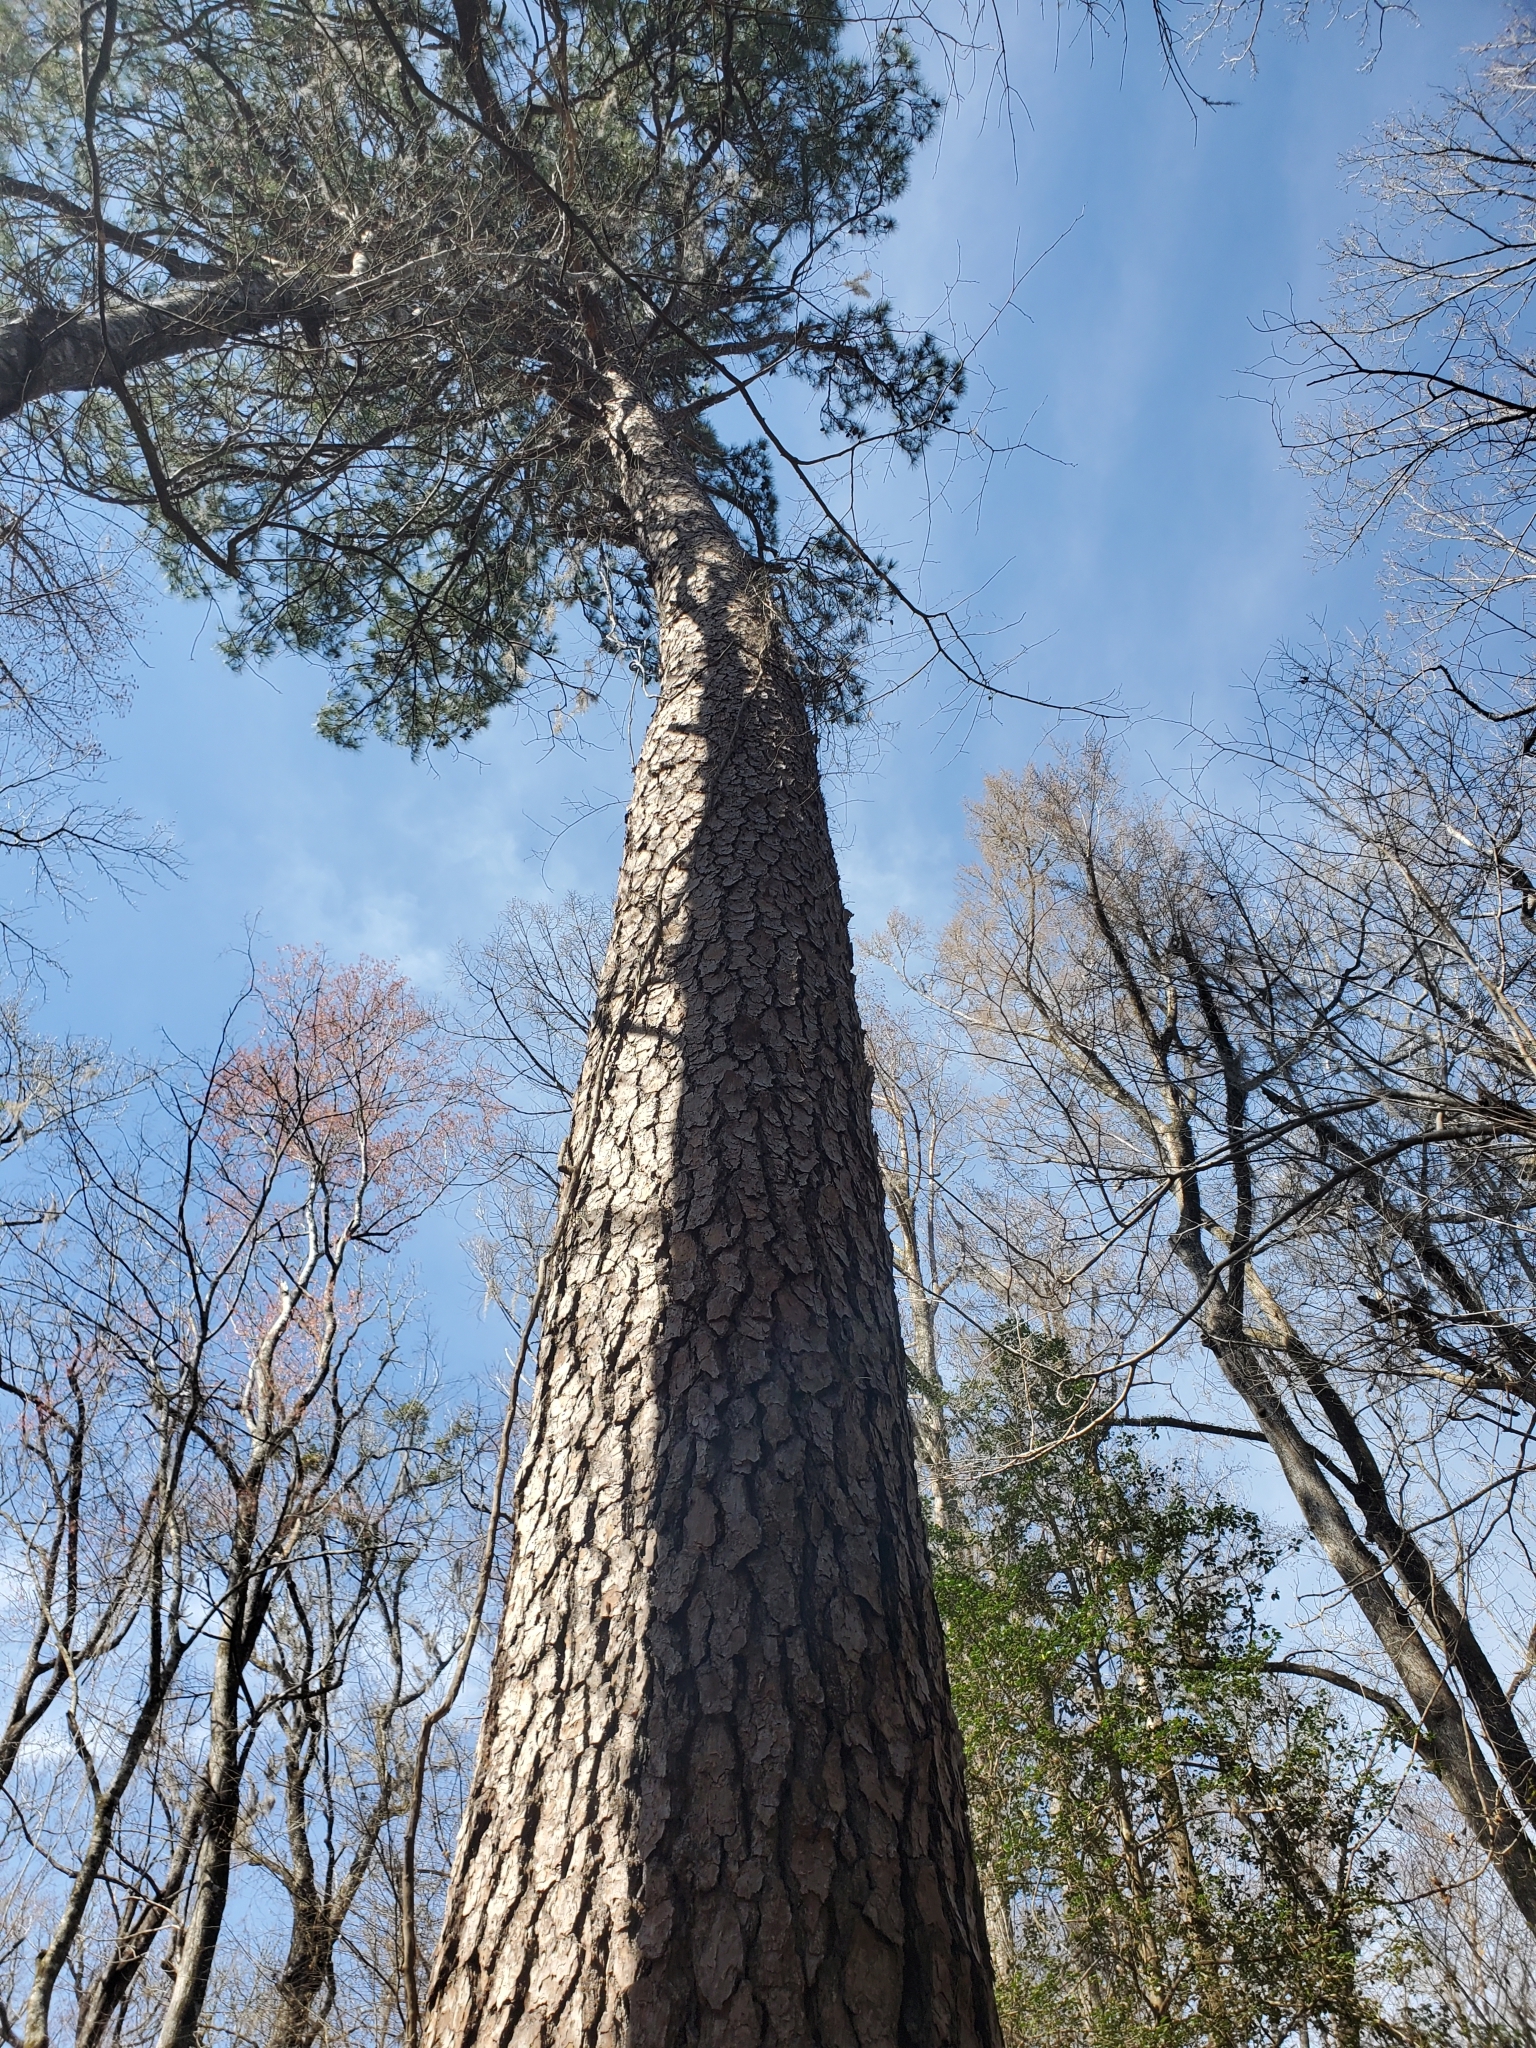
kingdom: Plantae
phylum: Tracheophyta
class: Pinopsida
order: Pinales
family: Pinaceae
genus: Pinus
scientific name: Pinus taeda
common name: Loblolly pine
